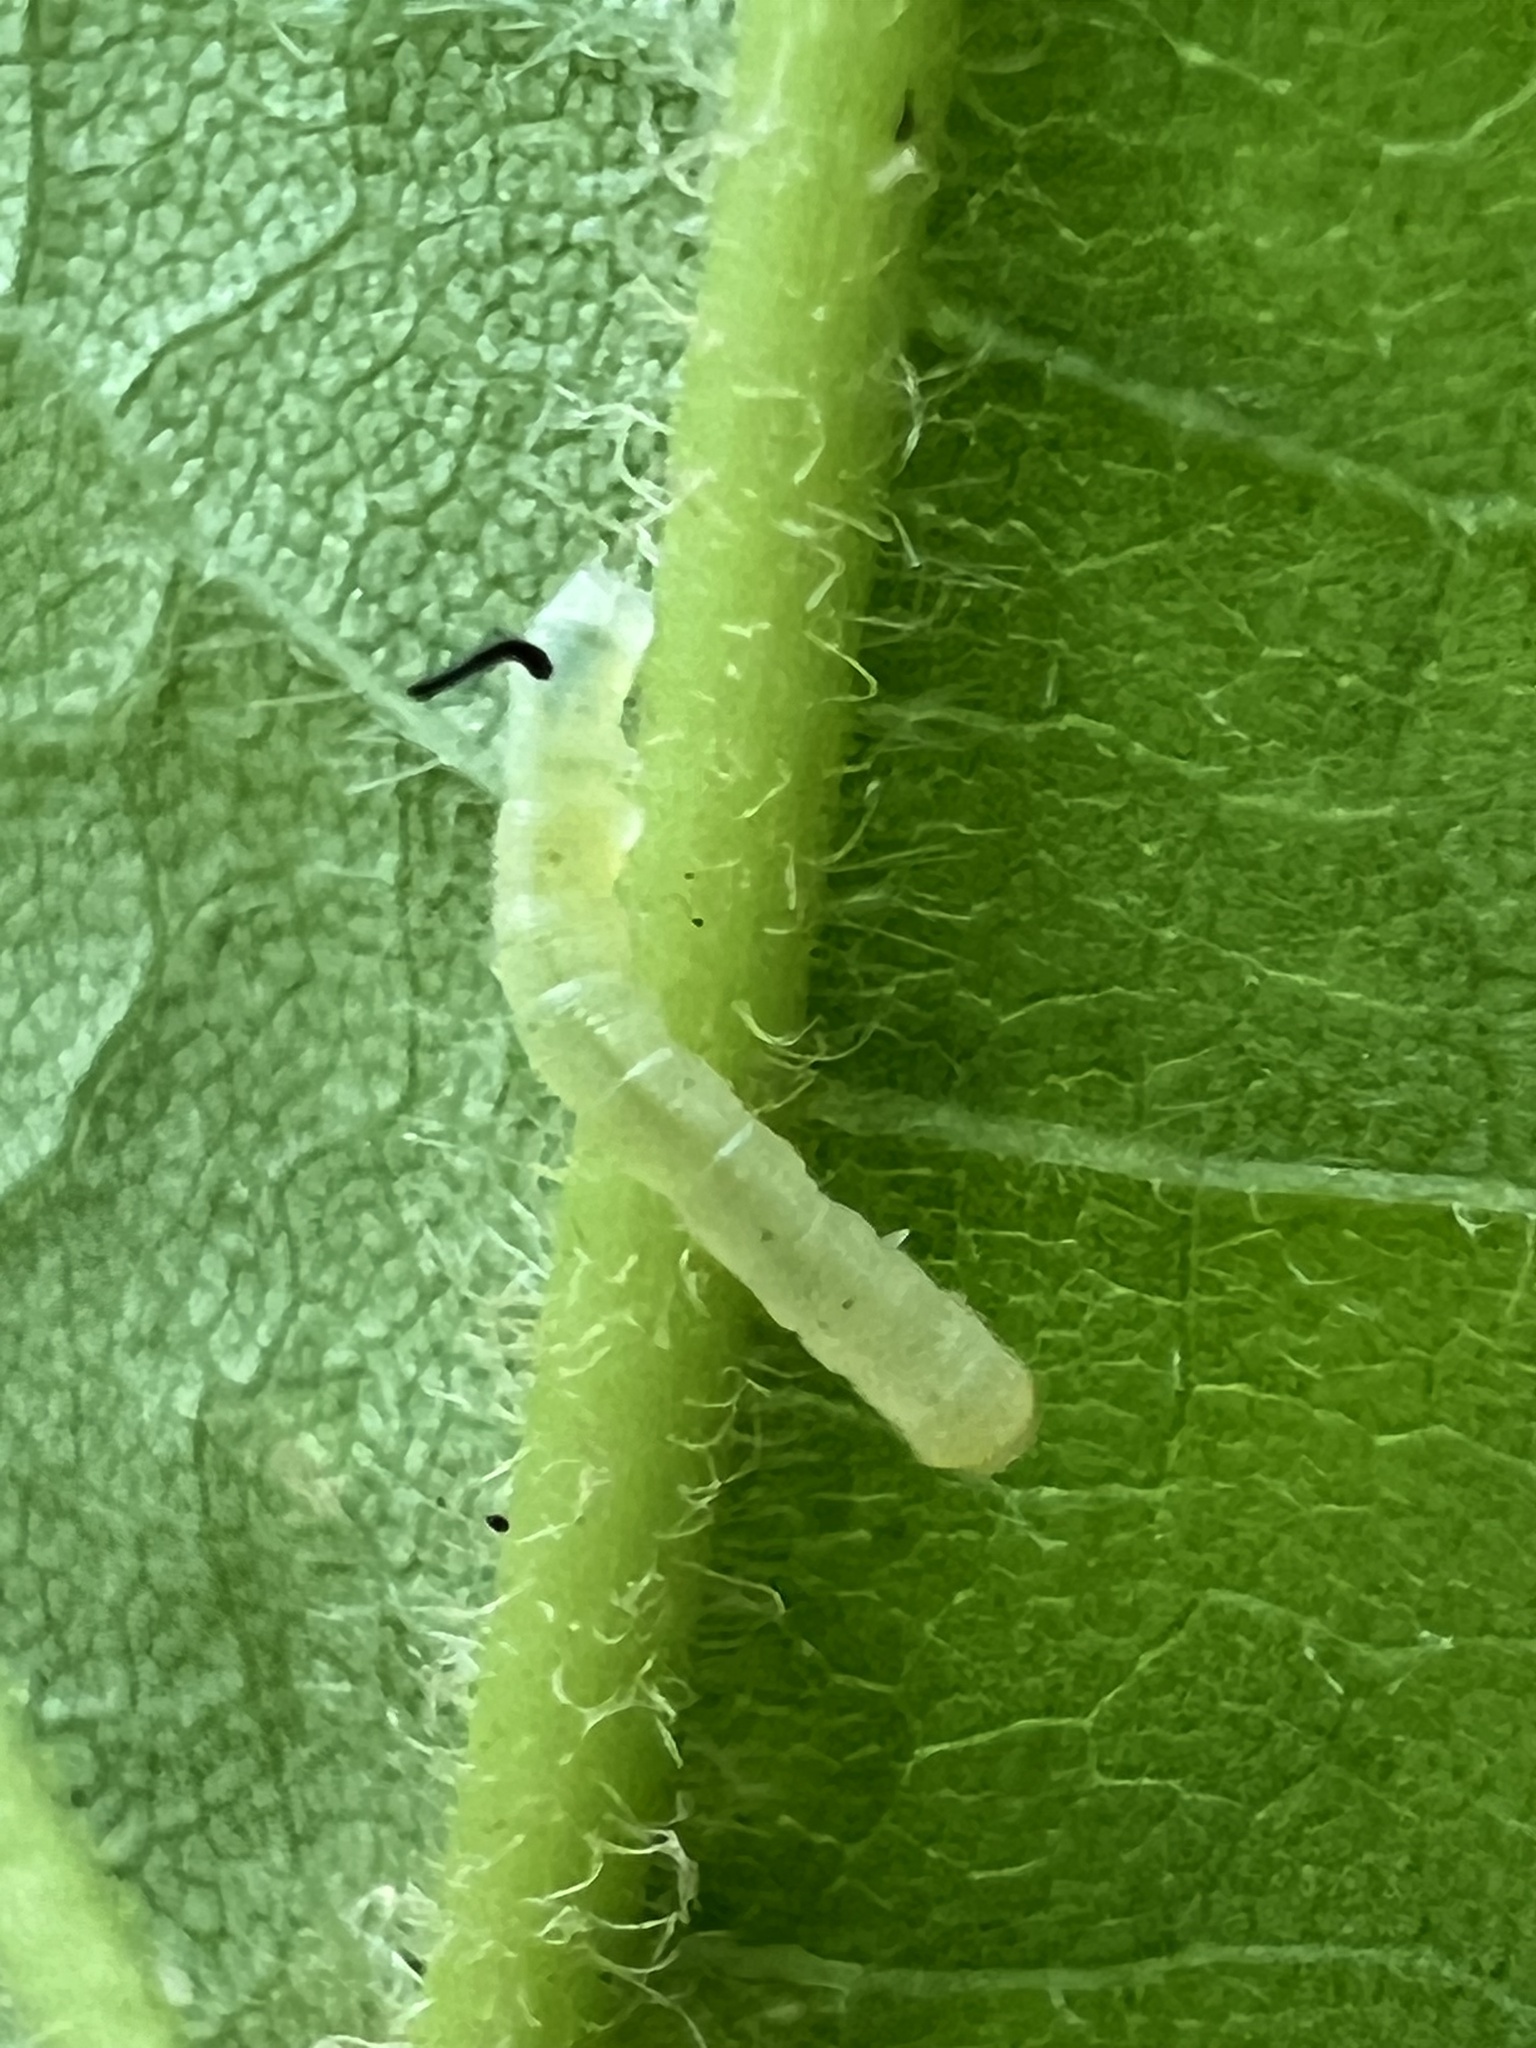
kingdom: Animalia
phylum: Arthropoda
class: Insecta
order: Lepidoptera
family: Sphingidae
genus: Ceratomia
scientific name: Ceratomia catalpae
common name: Catalpa hornworm
